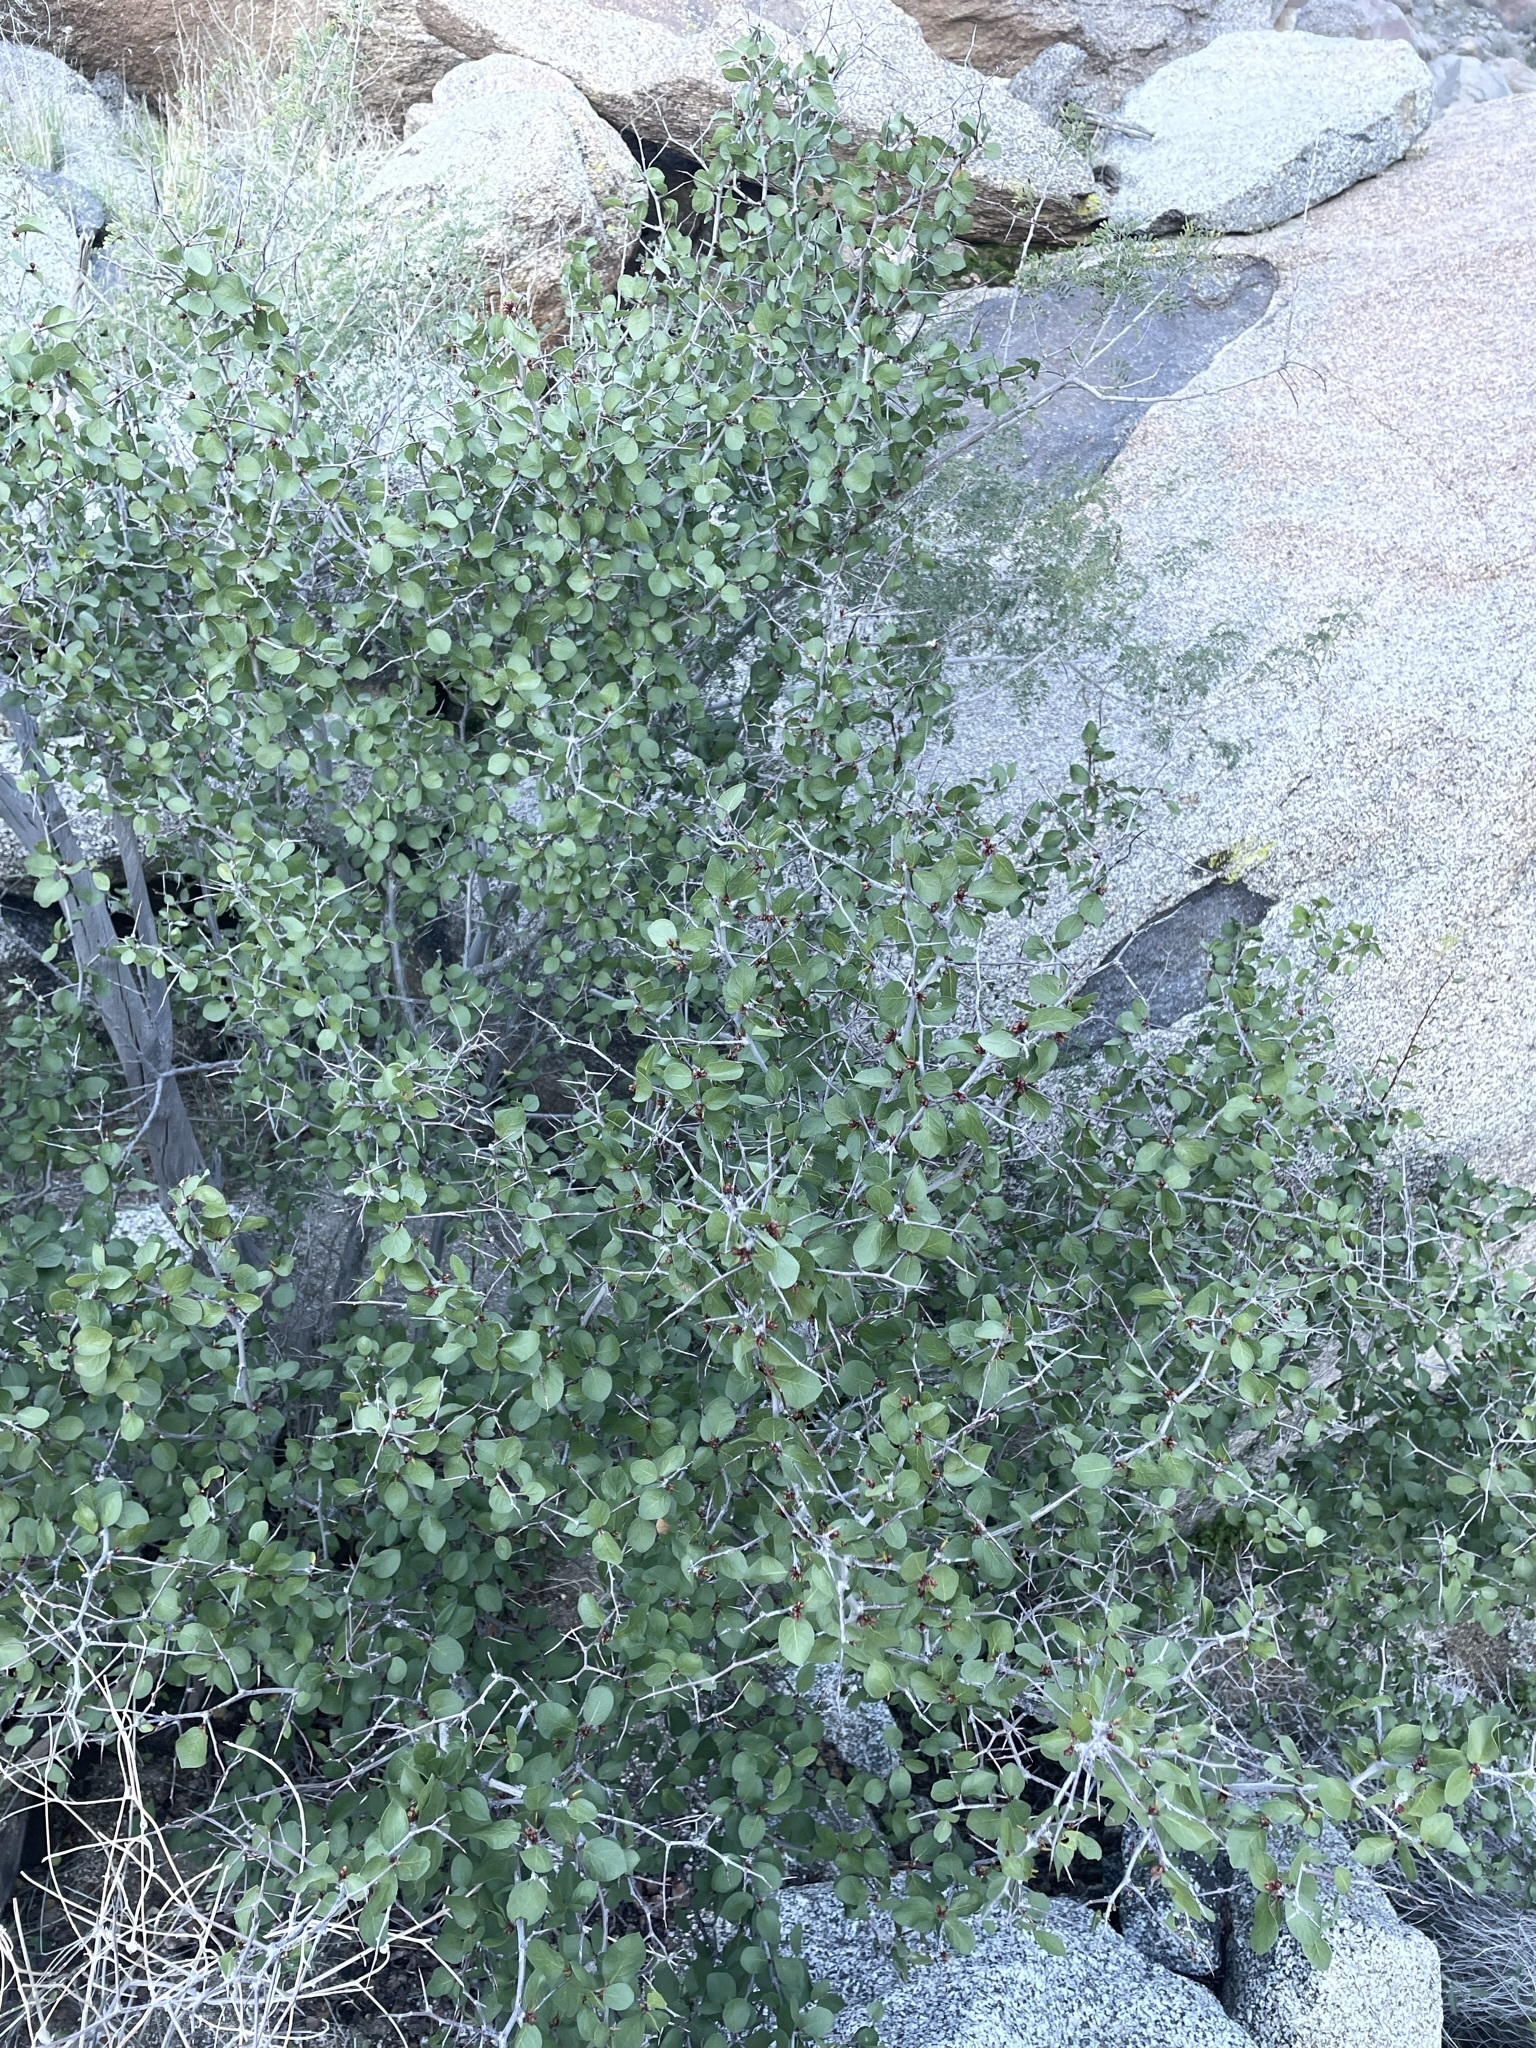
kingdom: Plantae
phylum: Tracheophyta
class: Magnoliopsida
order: Rosales
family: Rosaceae
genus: Prunus
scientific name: Prunus fremontii
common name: Desert apricot
